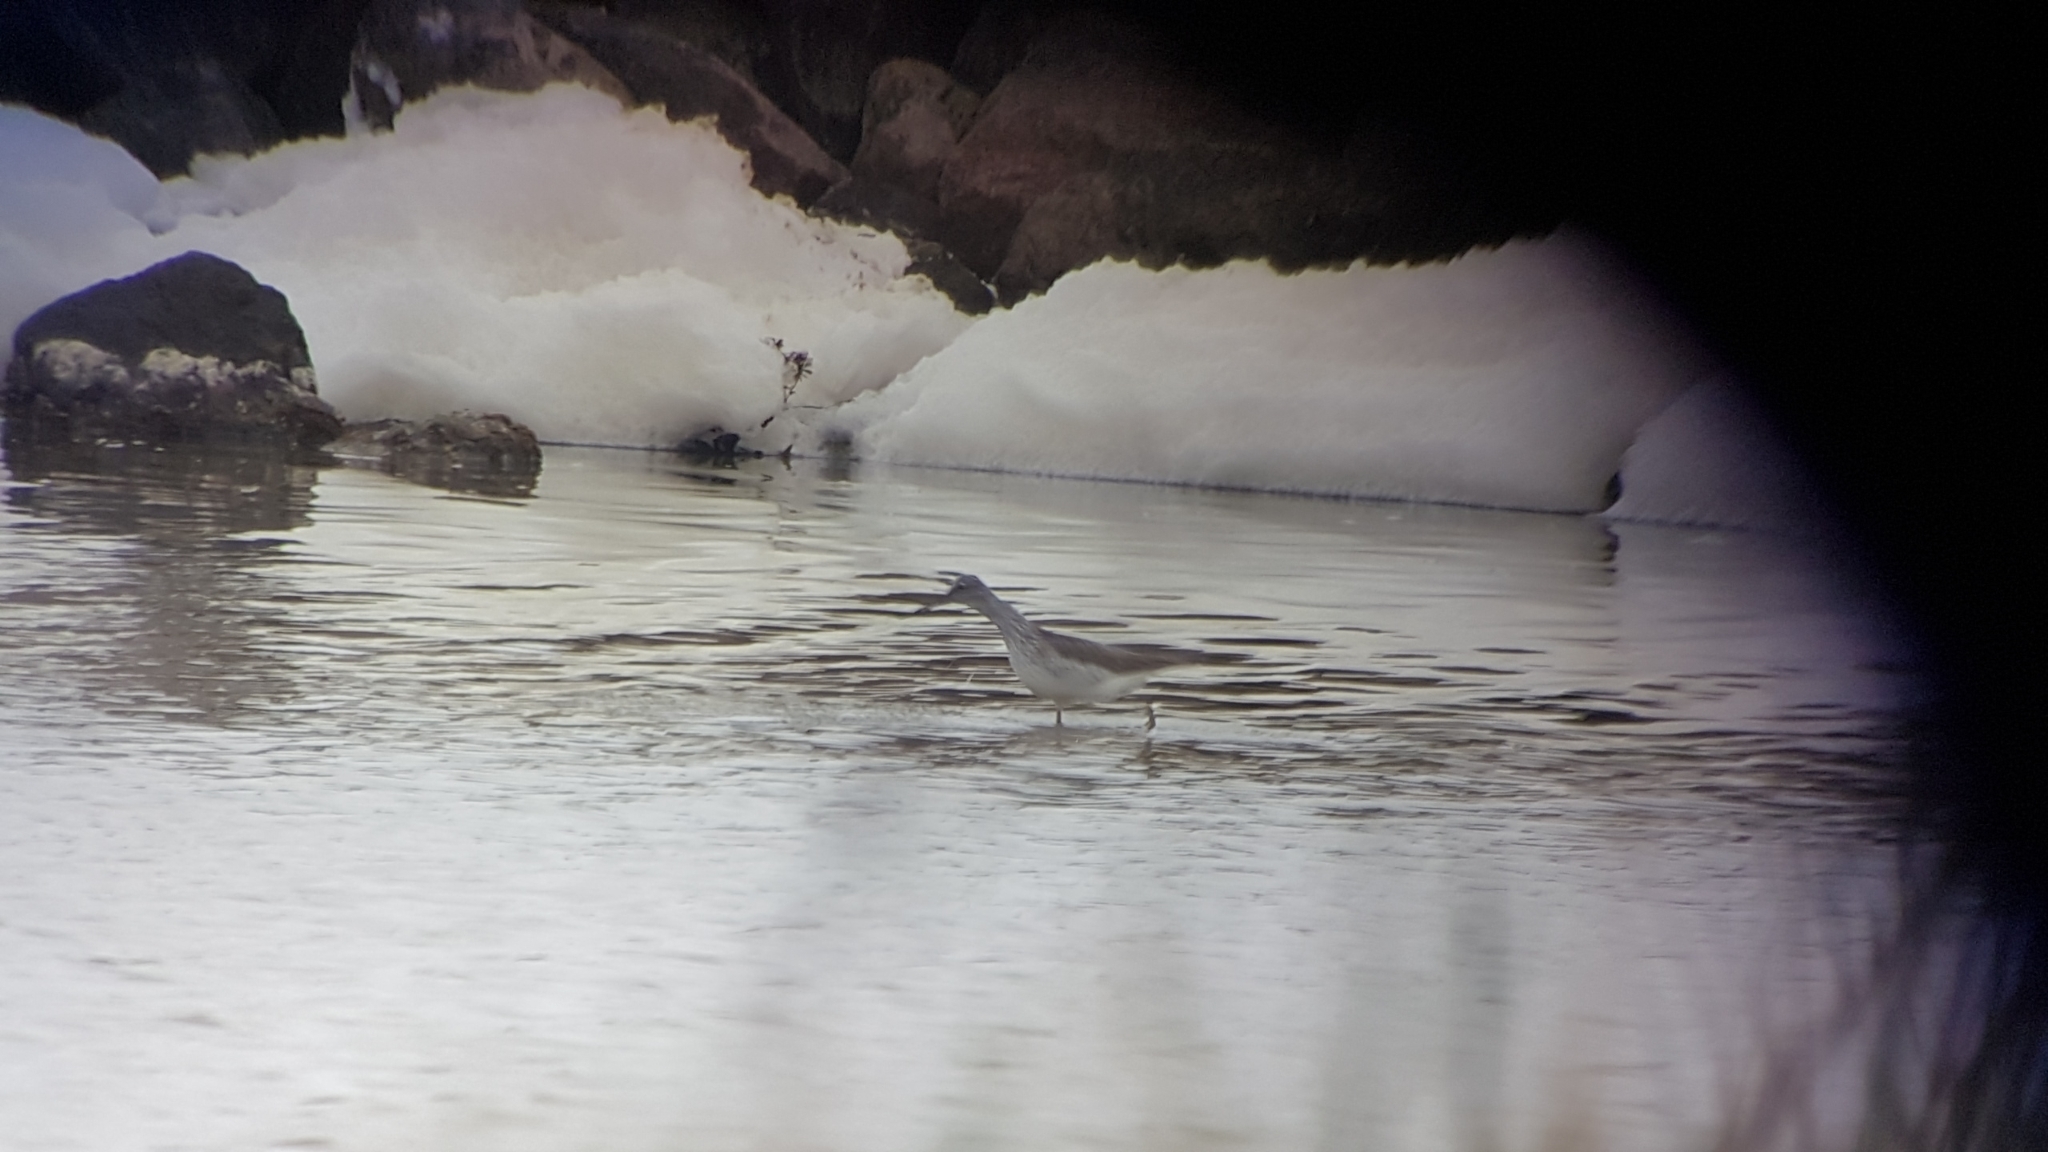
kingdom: Animalia
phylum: Chordata
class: Aves
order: Charadriiformes
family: Scolopacidae
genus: Tringa
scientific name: Tringa nebularia
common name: Common greenshank
